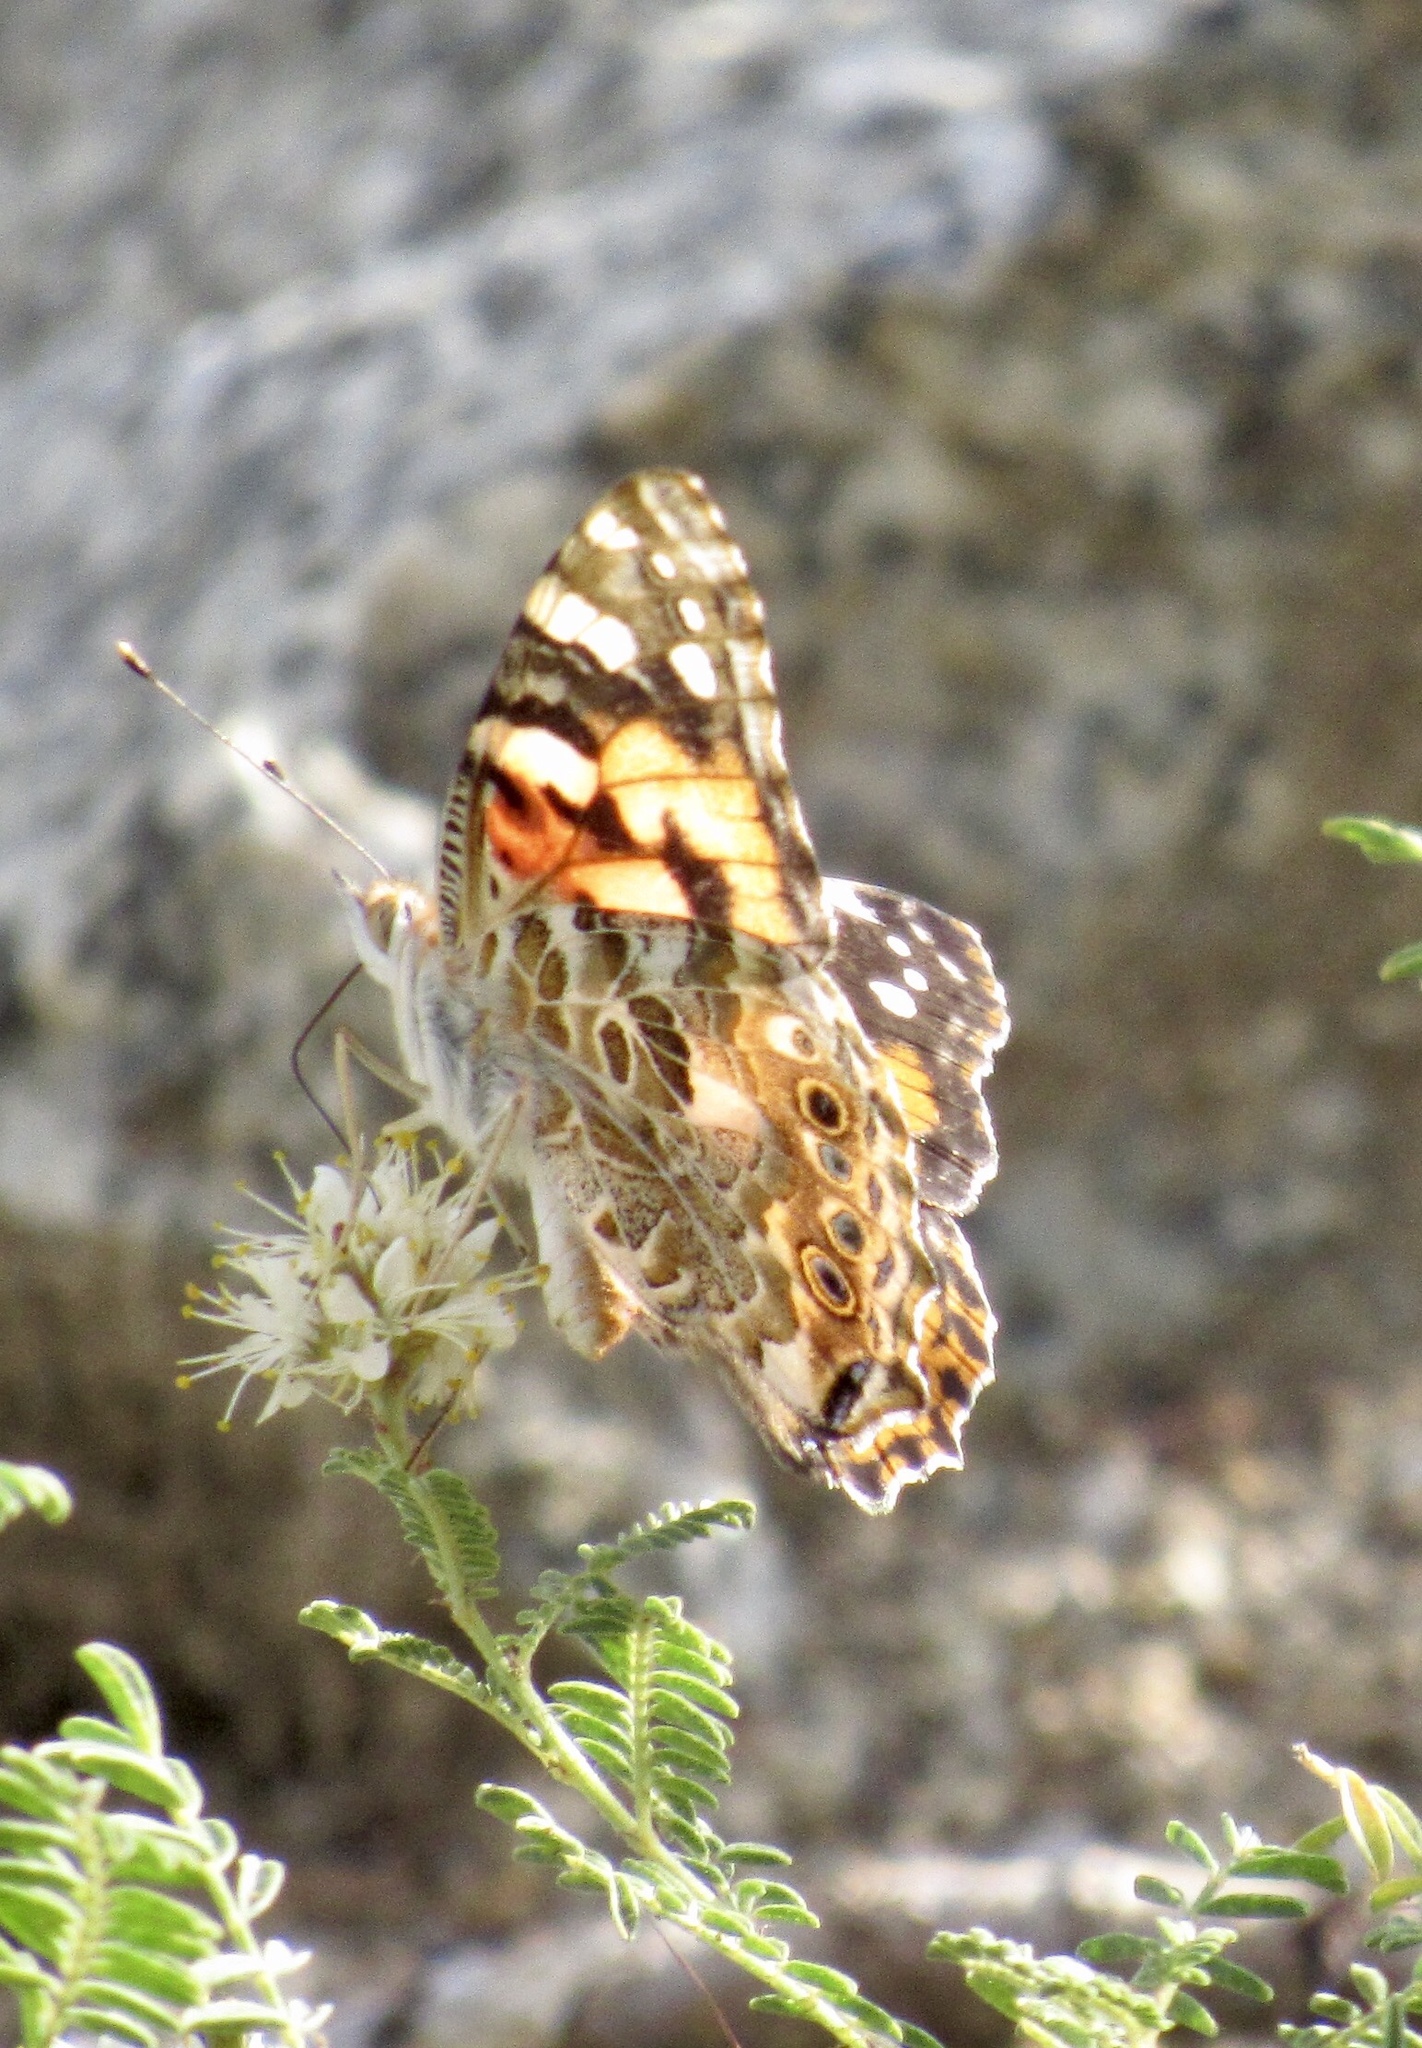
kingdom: Animalia
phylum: Arthropoda
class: Insecta
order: Lepidoptera
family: Nymphalidae
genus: Vanessa
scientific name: Vanessa cardui
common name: Painted lady
